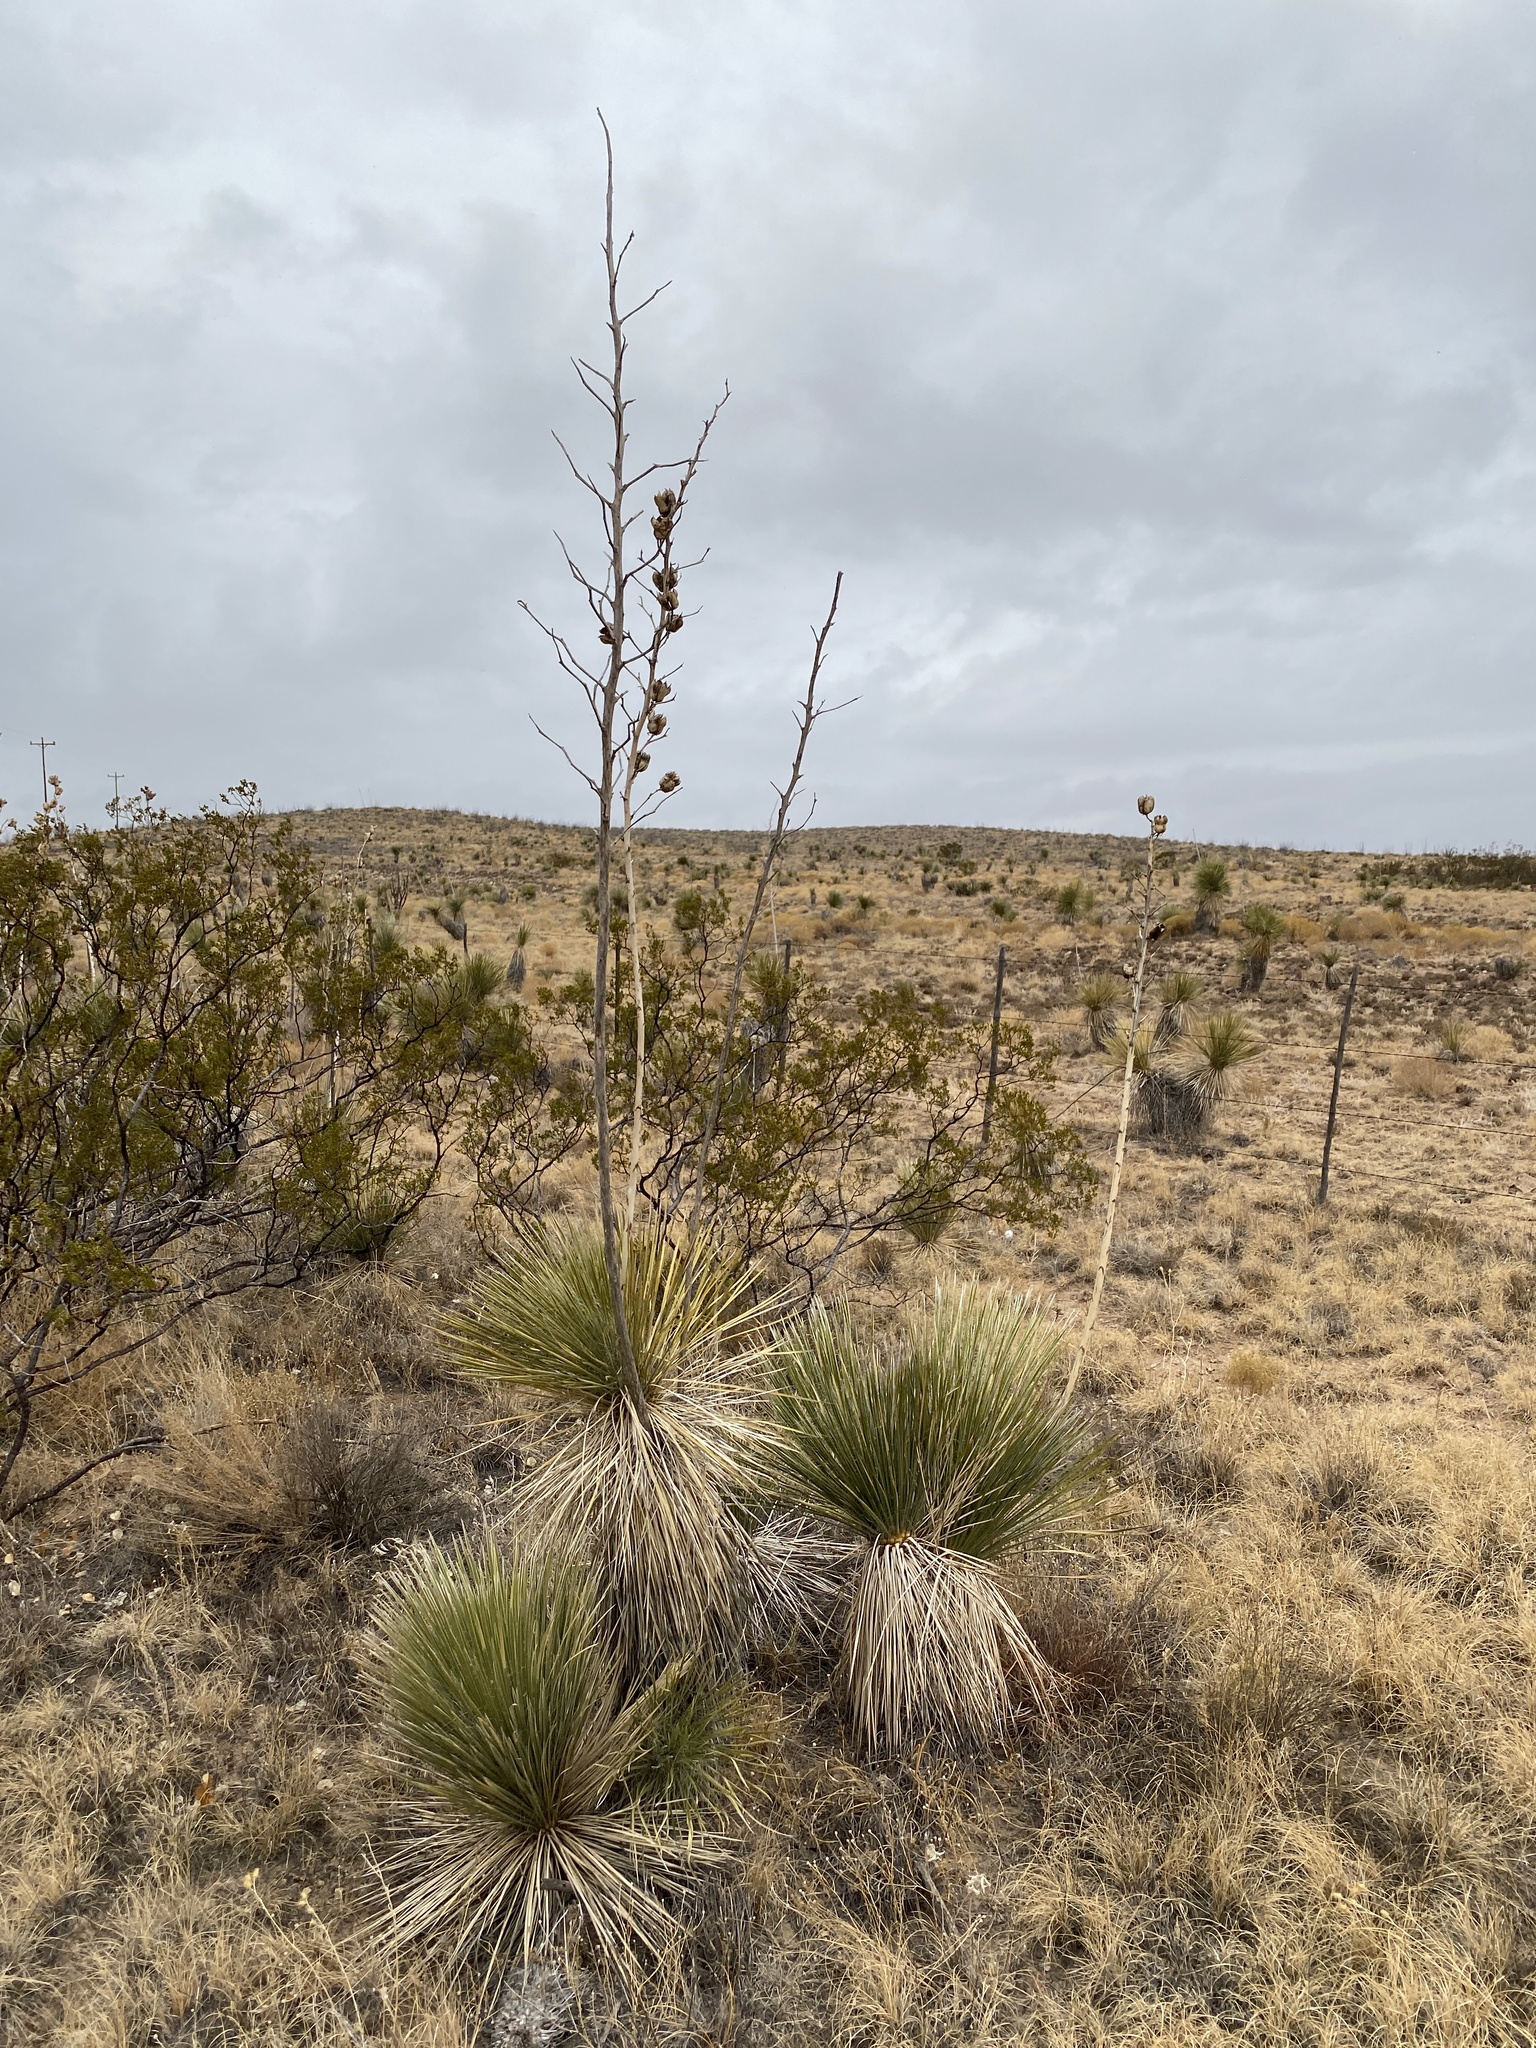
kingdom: Plantae
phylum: Tracheophyta
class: Liliopsida
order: Asparagales
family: Asparagaceae
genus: Yucca
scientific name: Yucca elata
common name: Palmella
